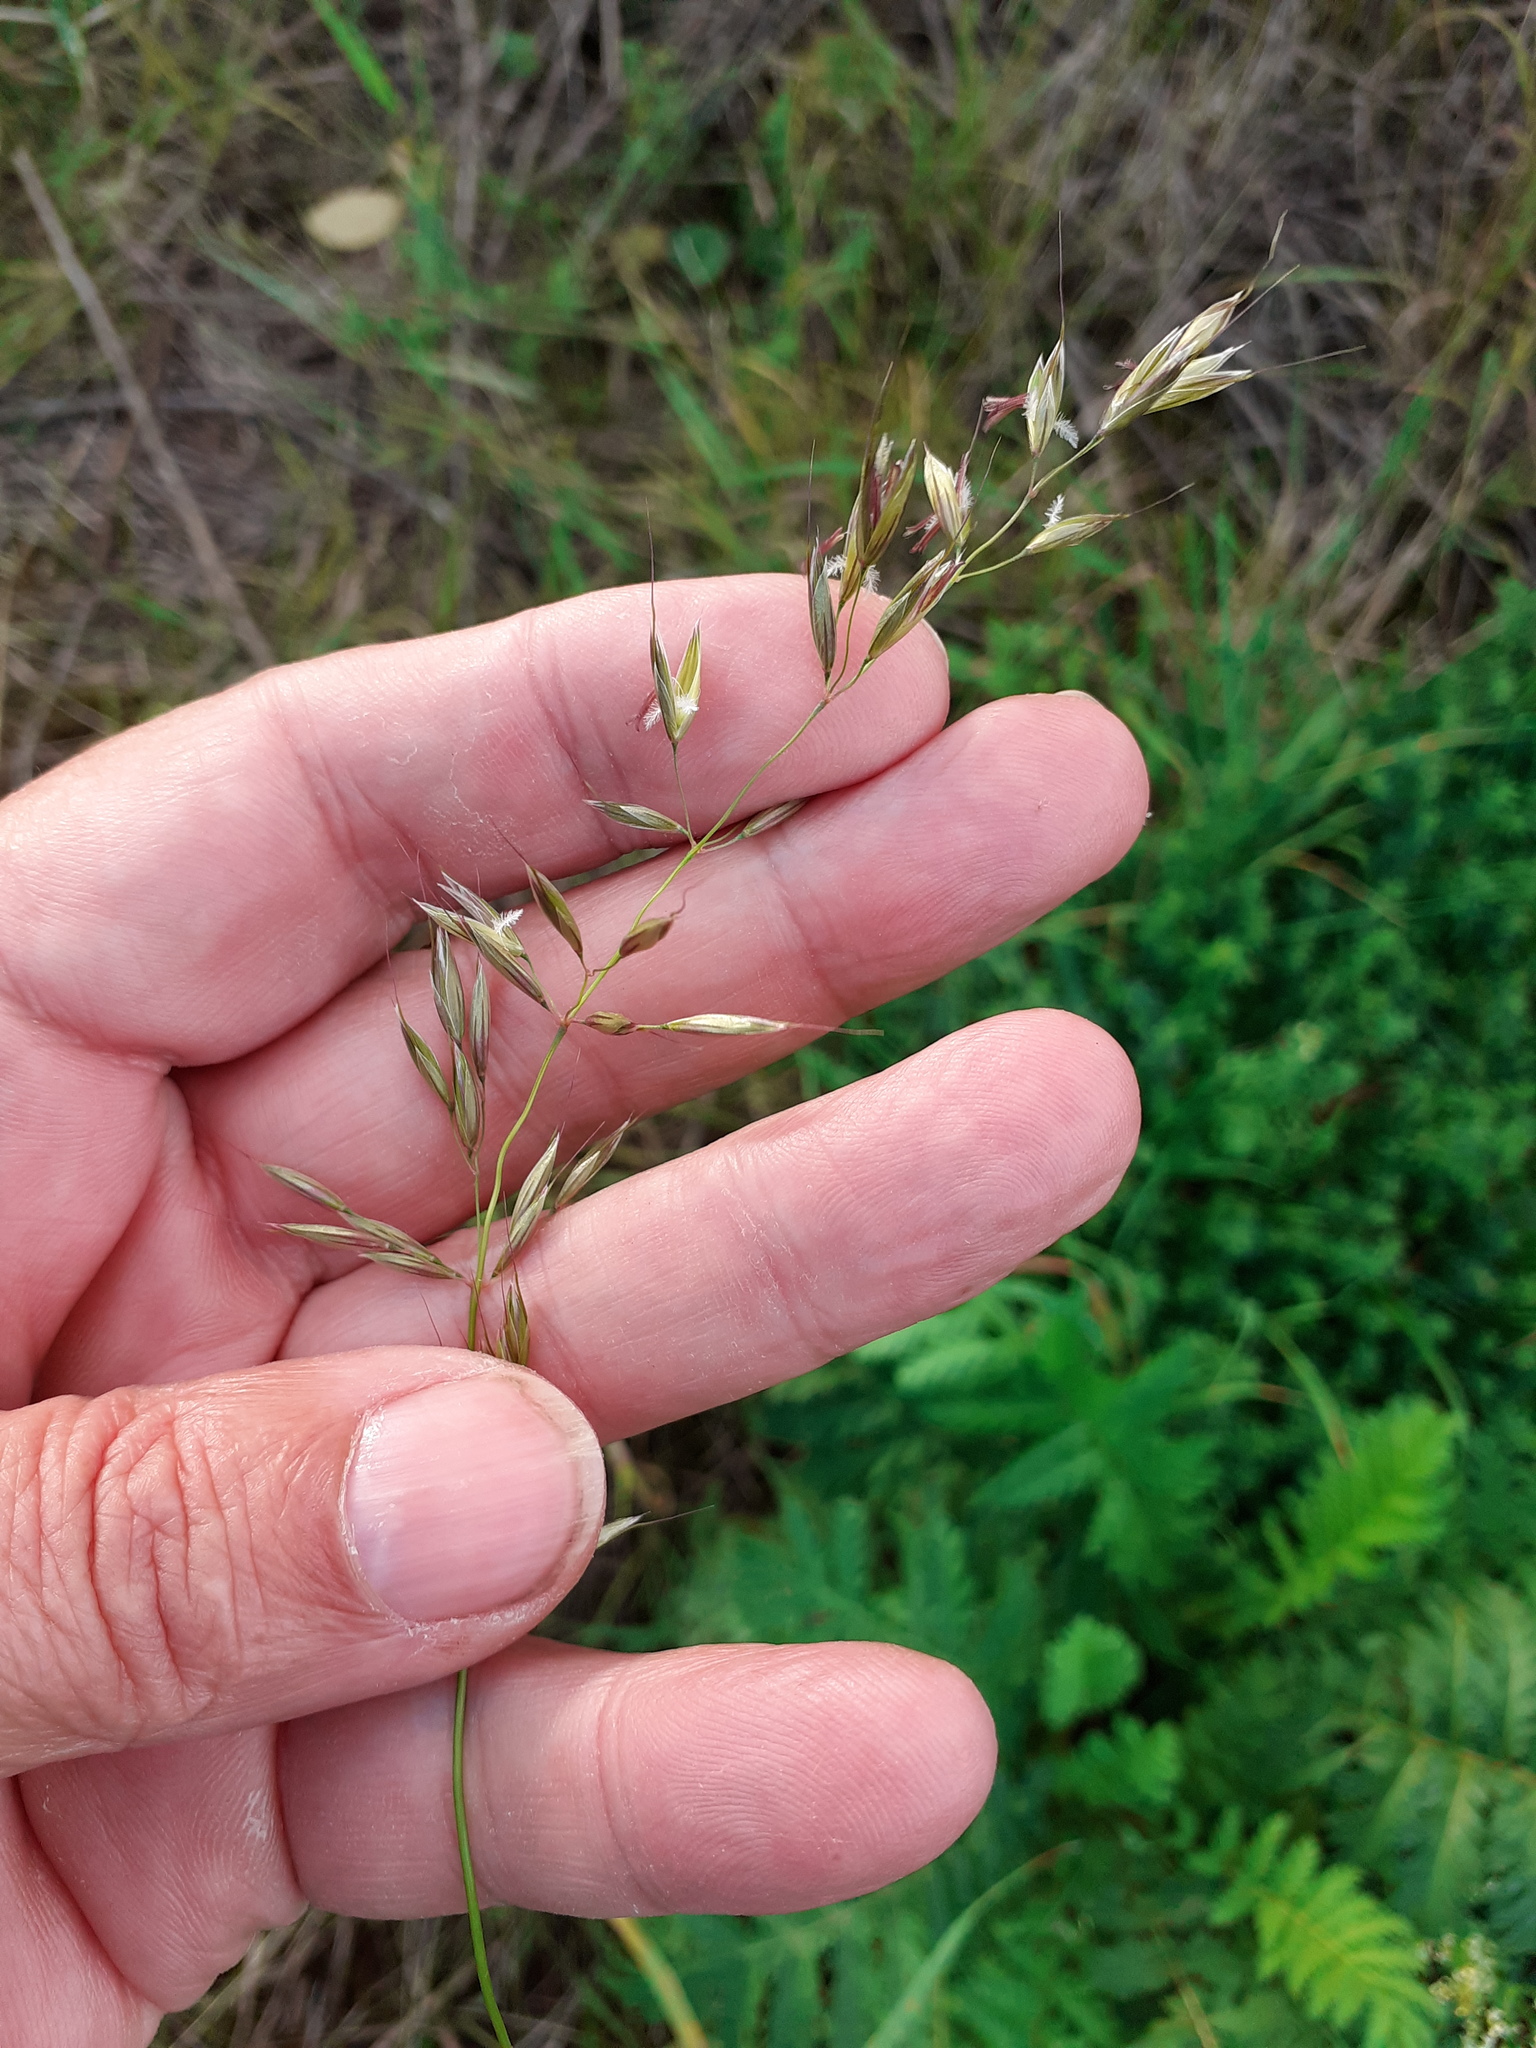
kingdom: Plantae
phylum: Tracheophyta
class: Liliopsida
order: Poales
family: Poaceae
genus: Arrhenatherum
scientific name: Arrhenatherum elatius
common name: Tall oatgrass
